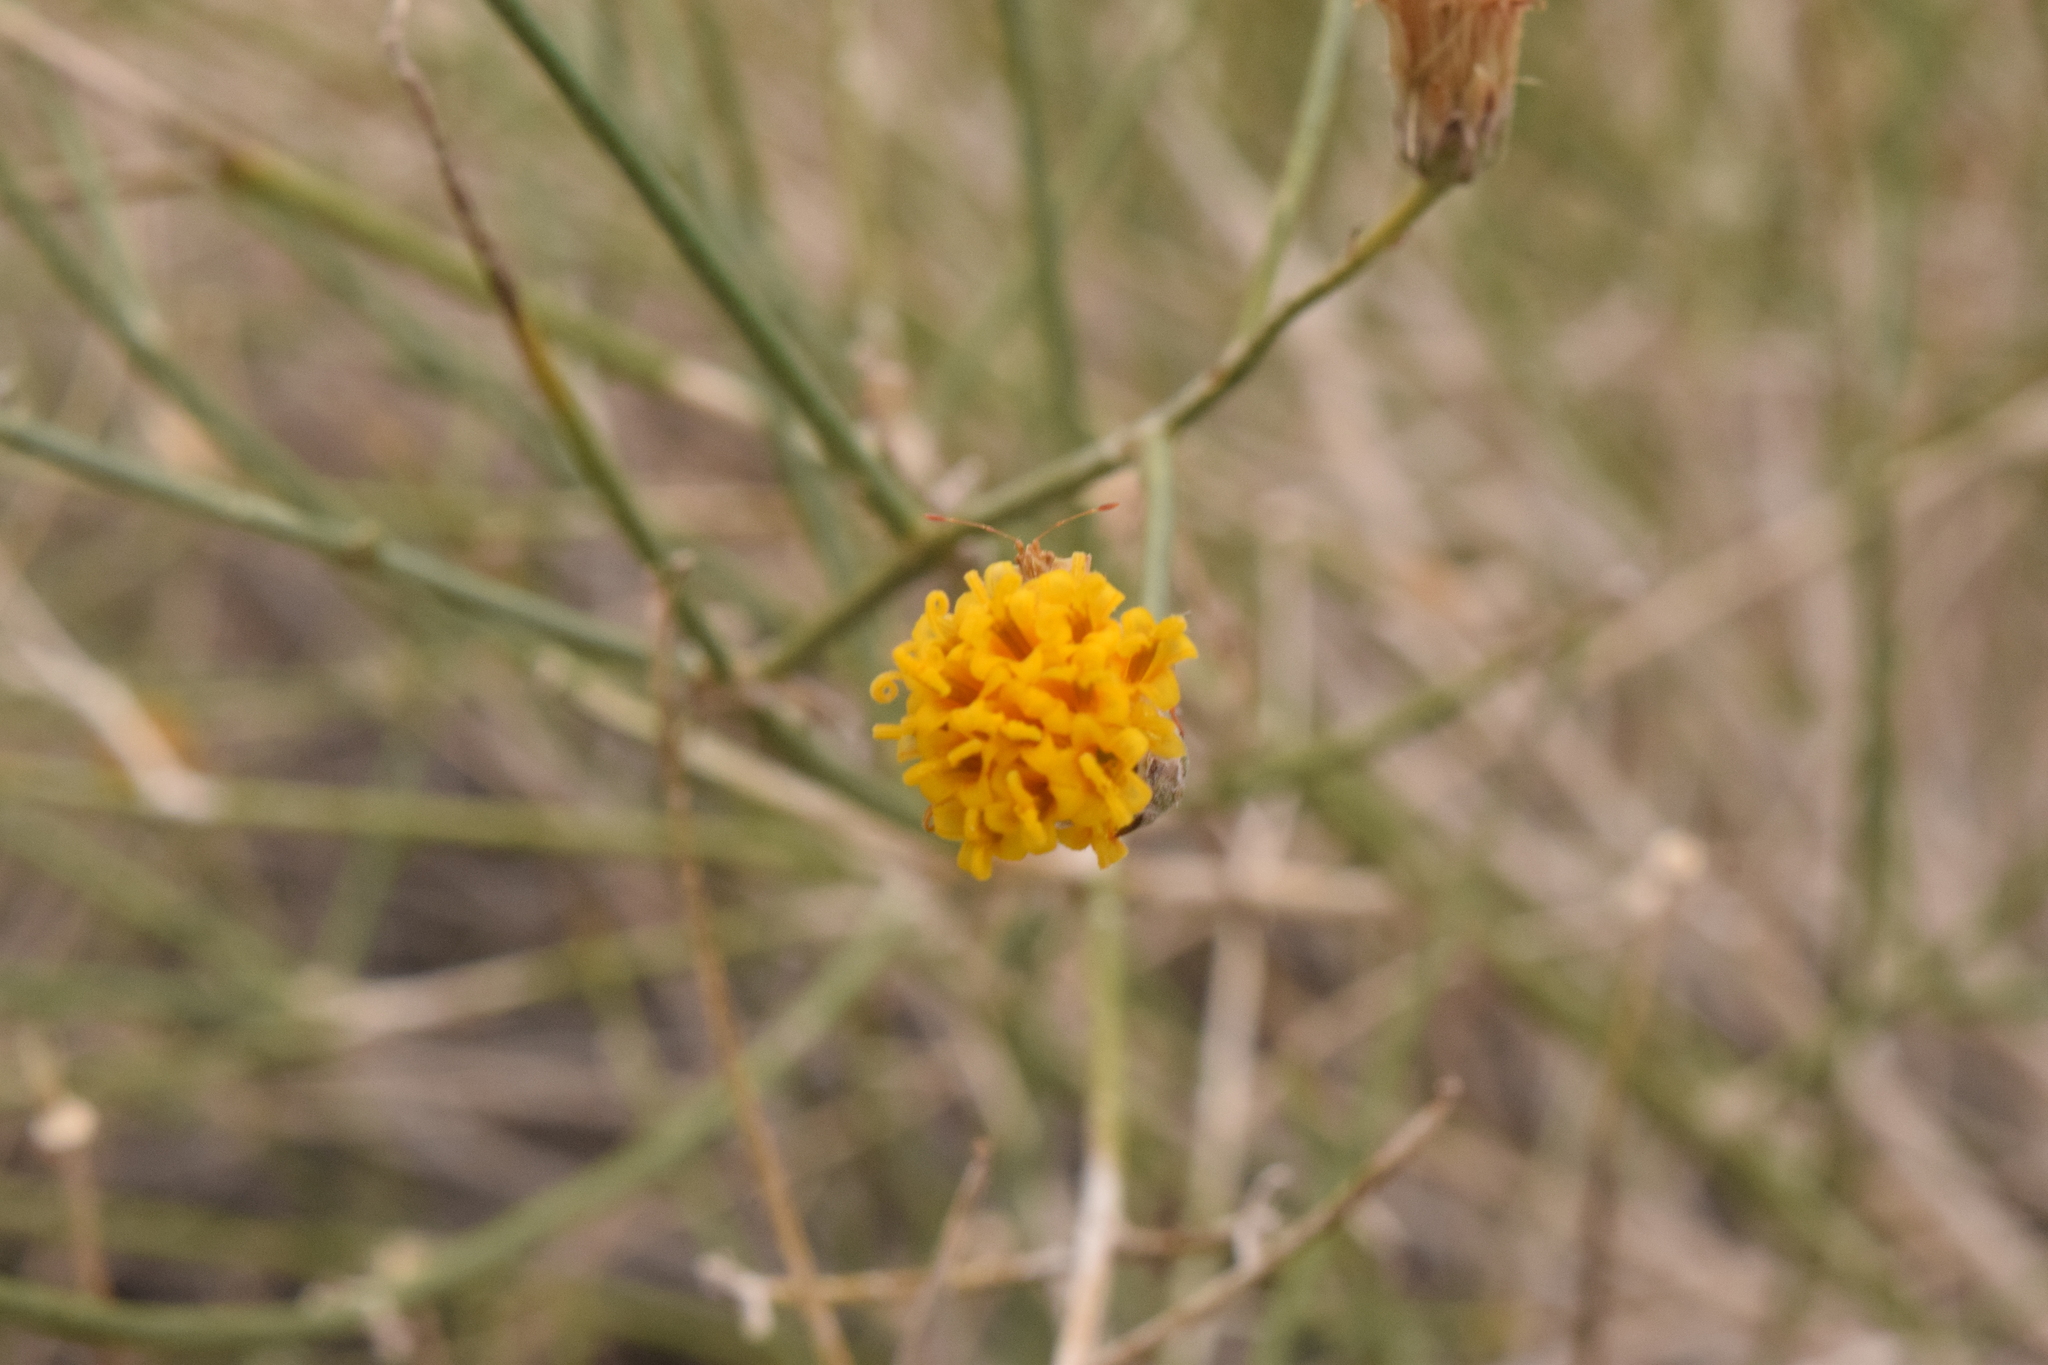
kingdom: Plantae
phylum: Tracheophyta
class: Magnoliopsida
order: Asterales
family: Asteraceae
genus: Bebbia
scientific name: Bebbia juncea
